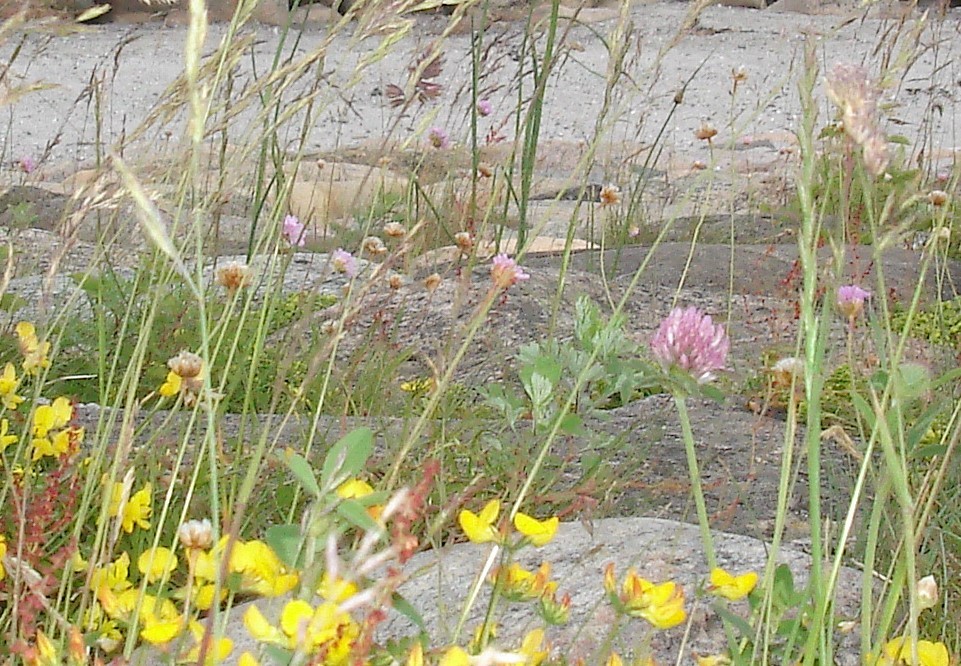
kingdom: Plantae
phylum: Tracheophyta
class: Magnoliopsida
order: Fabales
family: Fabaceae
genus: Trifolium
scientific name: Trifolium pratense
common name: Red clover
